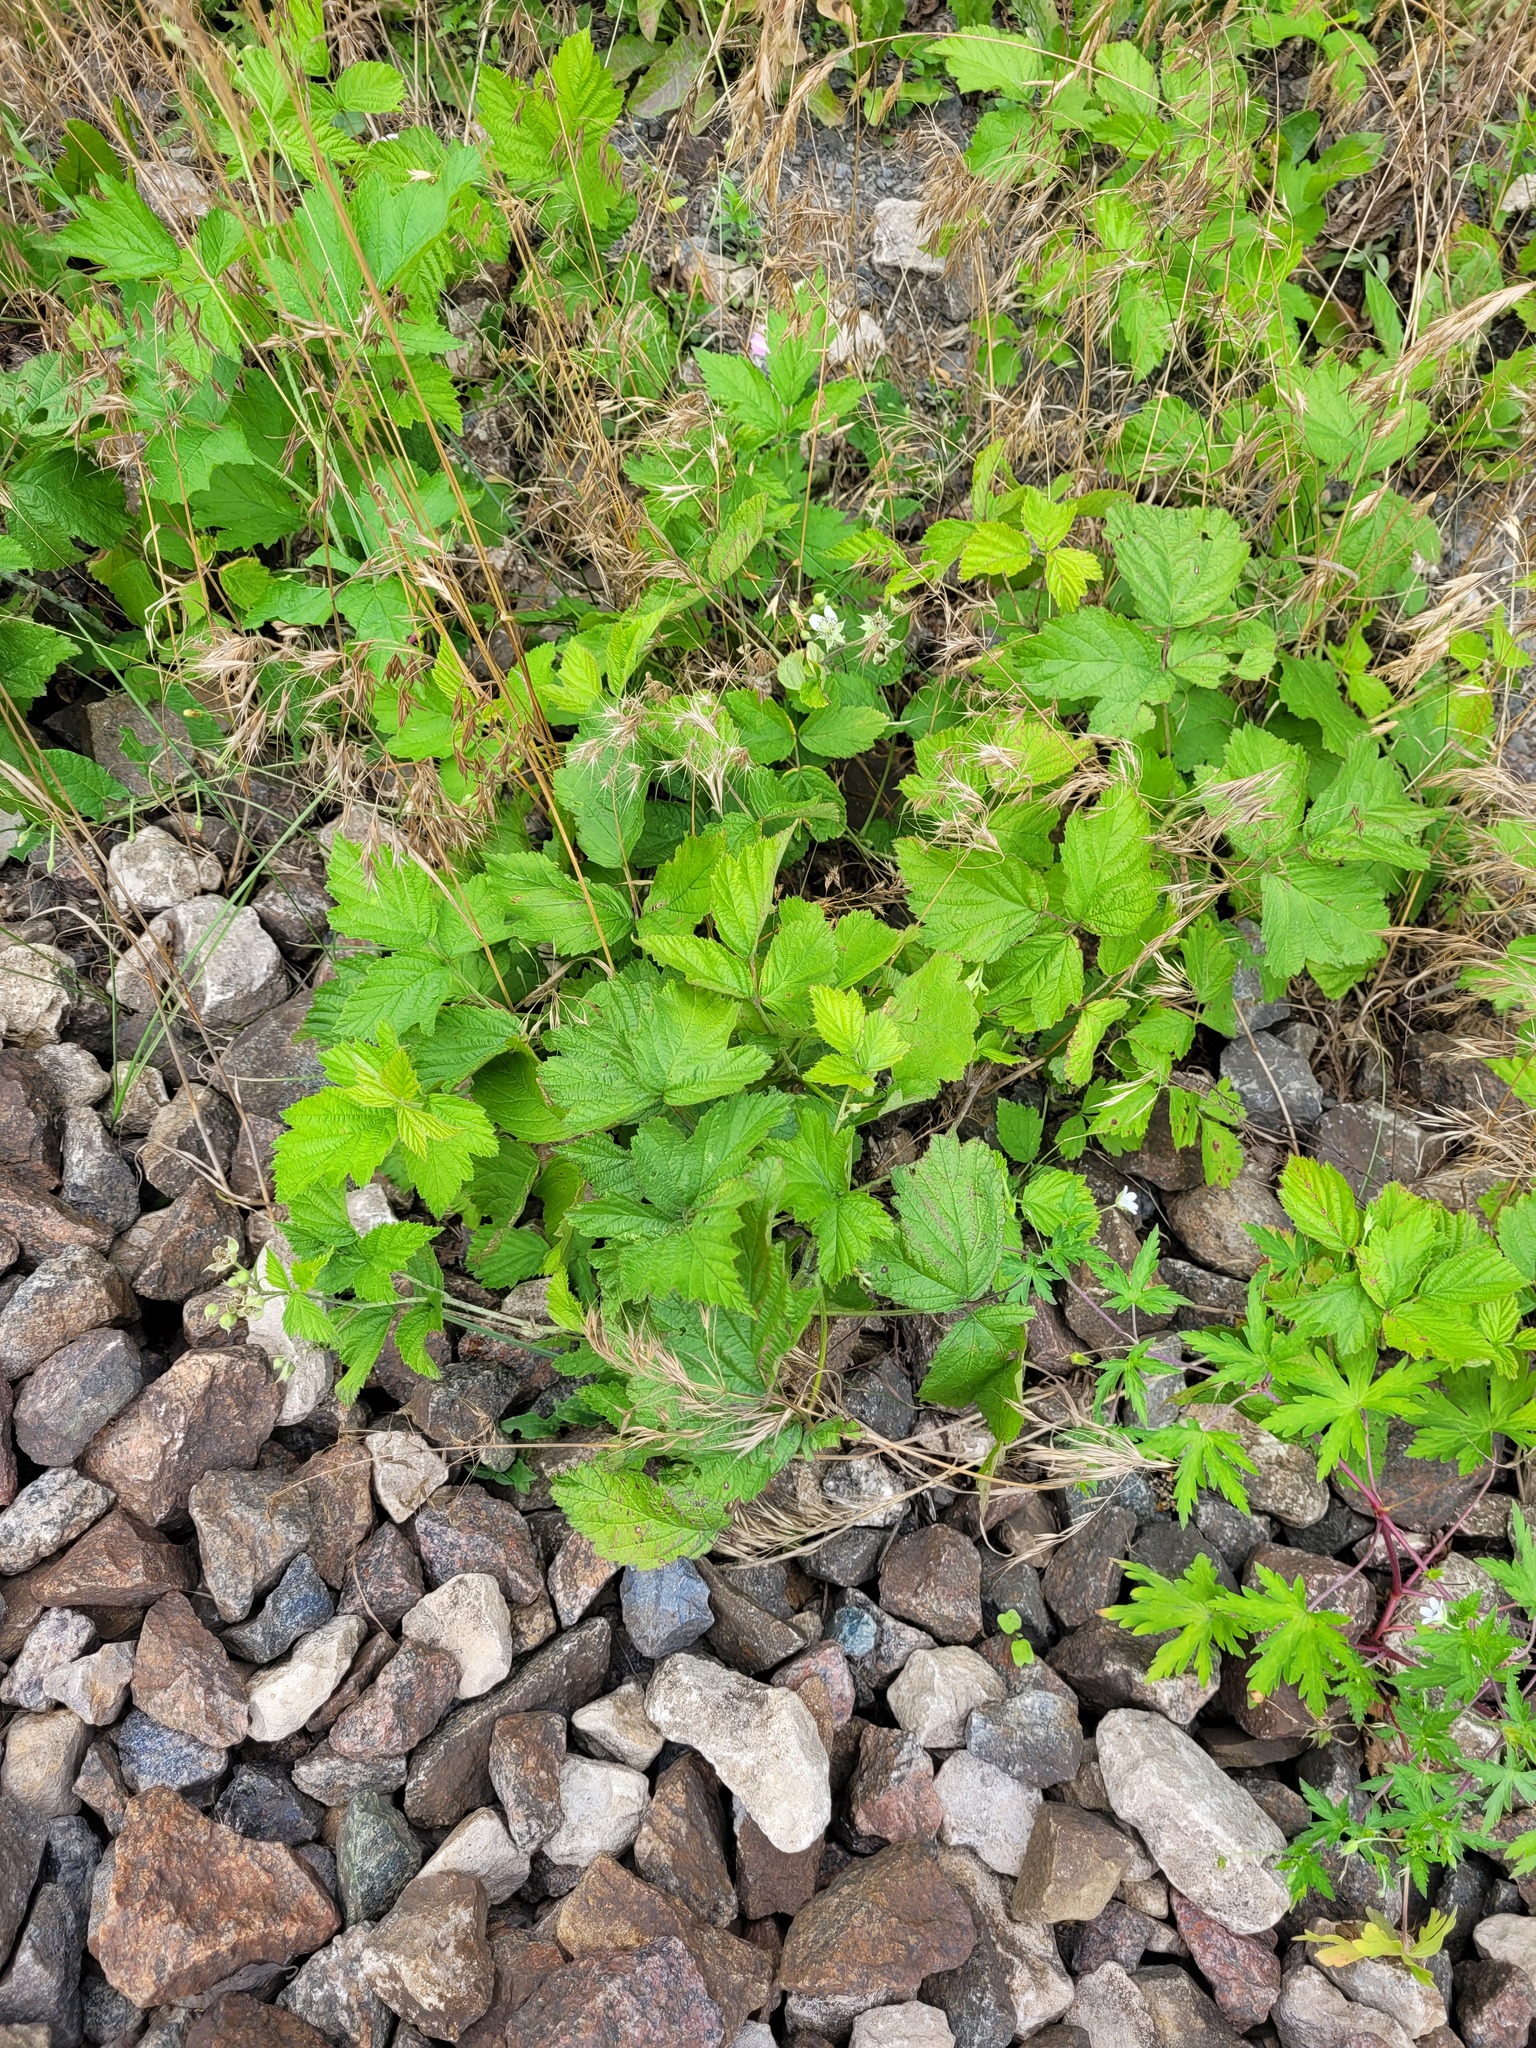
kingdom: Plantae
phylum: Tracheophyta
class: Magnoliopsida
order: Rosales
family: Rosaceae
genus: Rubus
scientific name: Rubus caesius
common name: Dewberry
